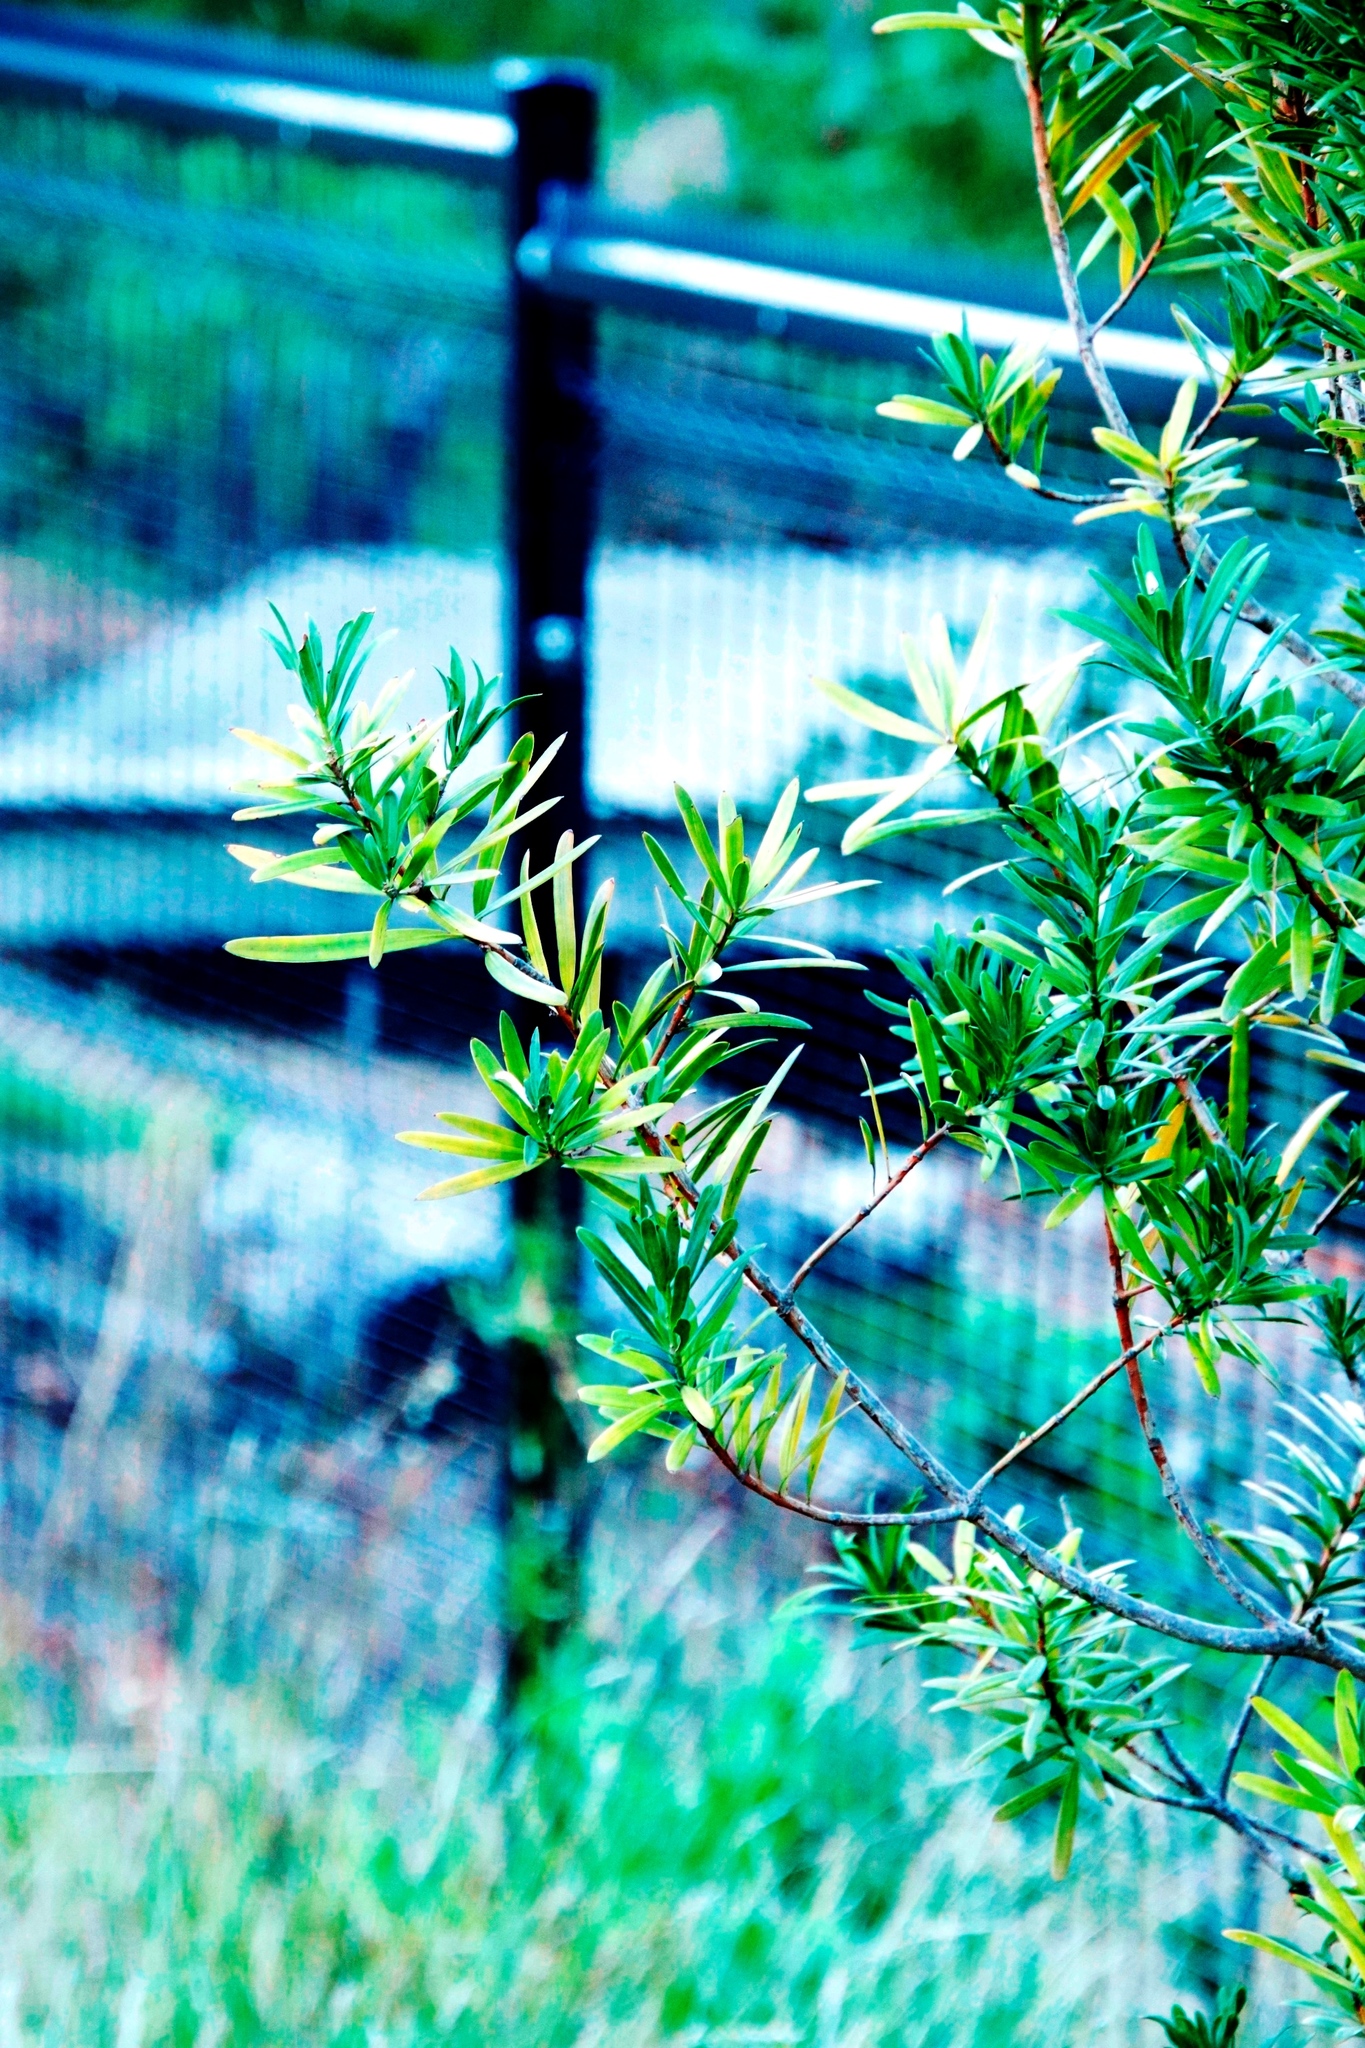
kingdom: Plantae
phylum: Tracheophyta
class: Pinopsida
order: Pinales
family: Podocarpaceae
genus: Podocarpus
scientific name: Podocarpus latifolius
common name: True yellowwood
